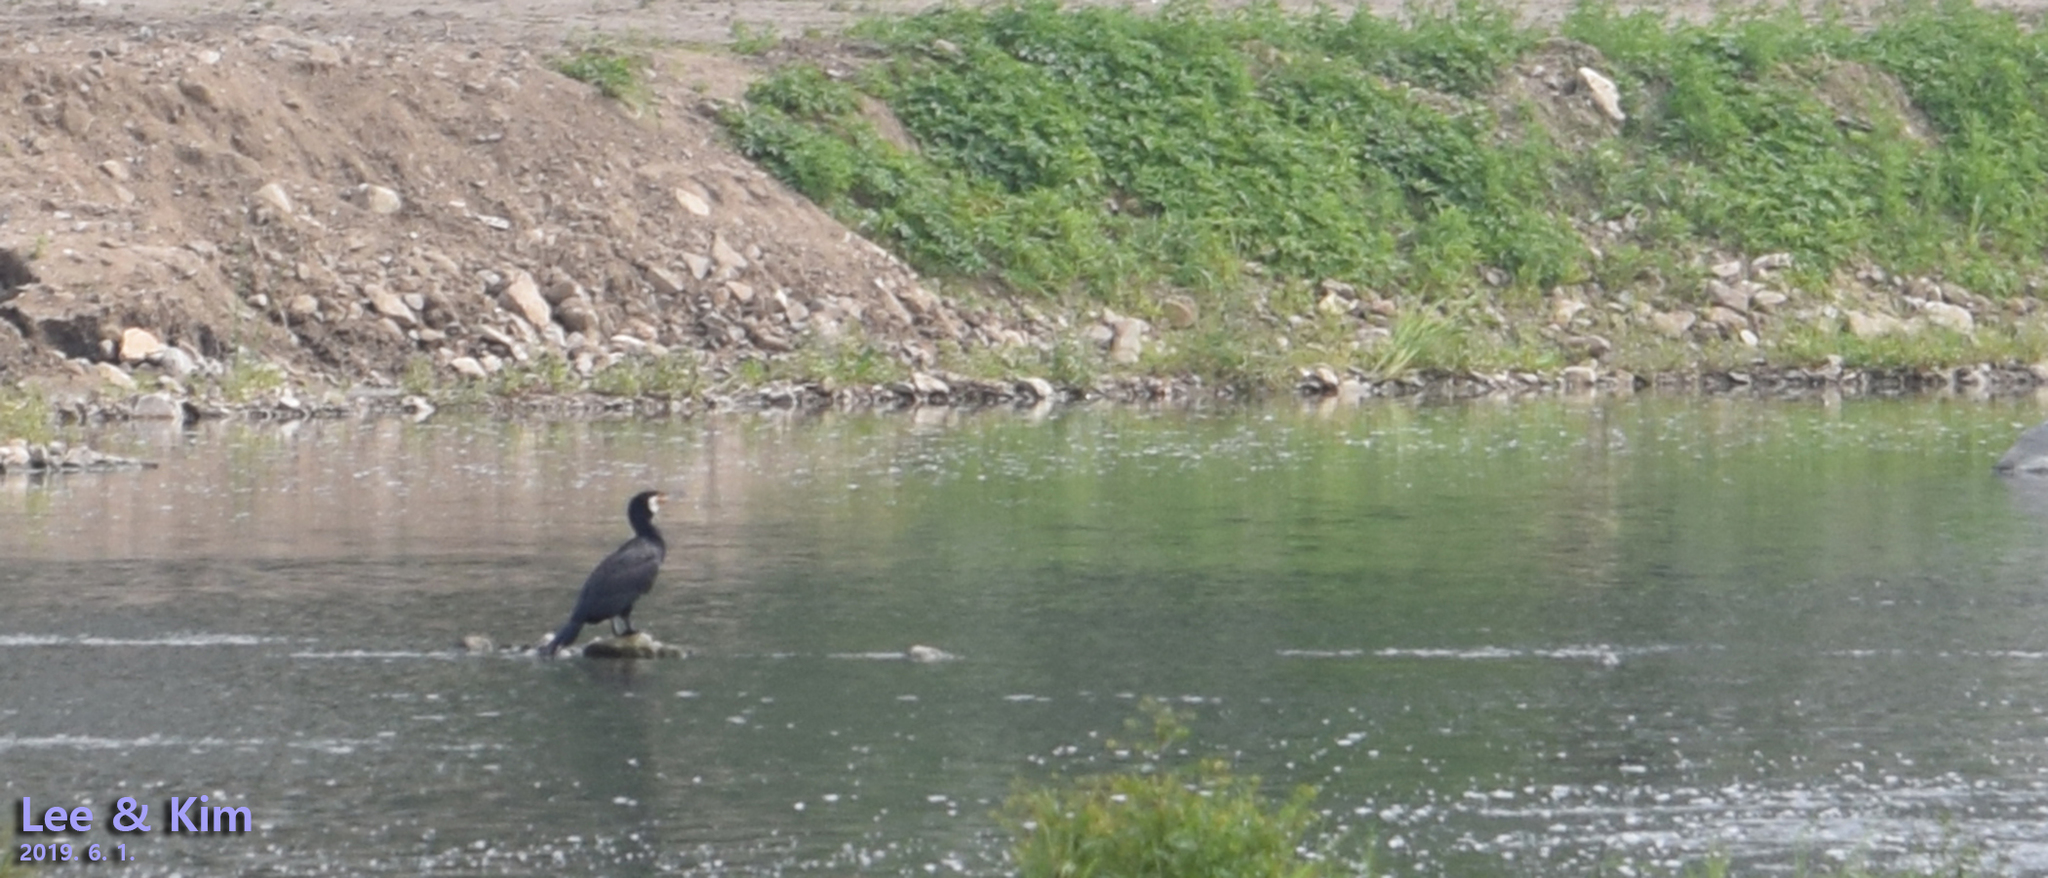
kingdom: Animalia
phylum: Chordata
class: Aves
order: Suliformes
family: Phalacrocoracidae
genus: Phalacrocorax
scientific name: Phalacrocorax carbo
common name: Great cormorant
